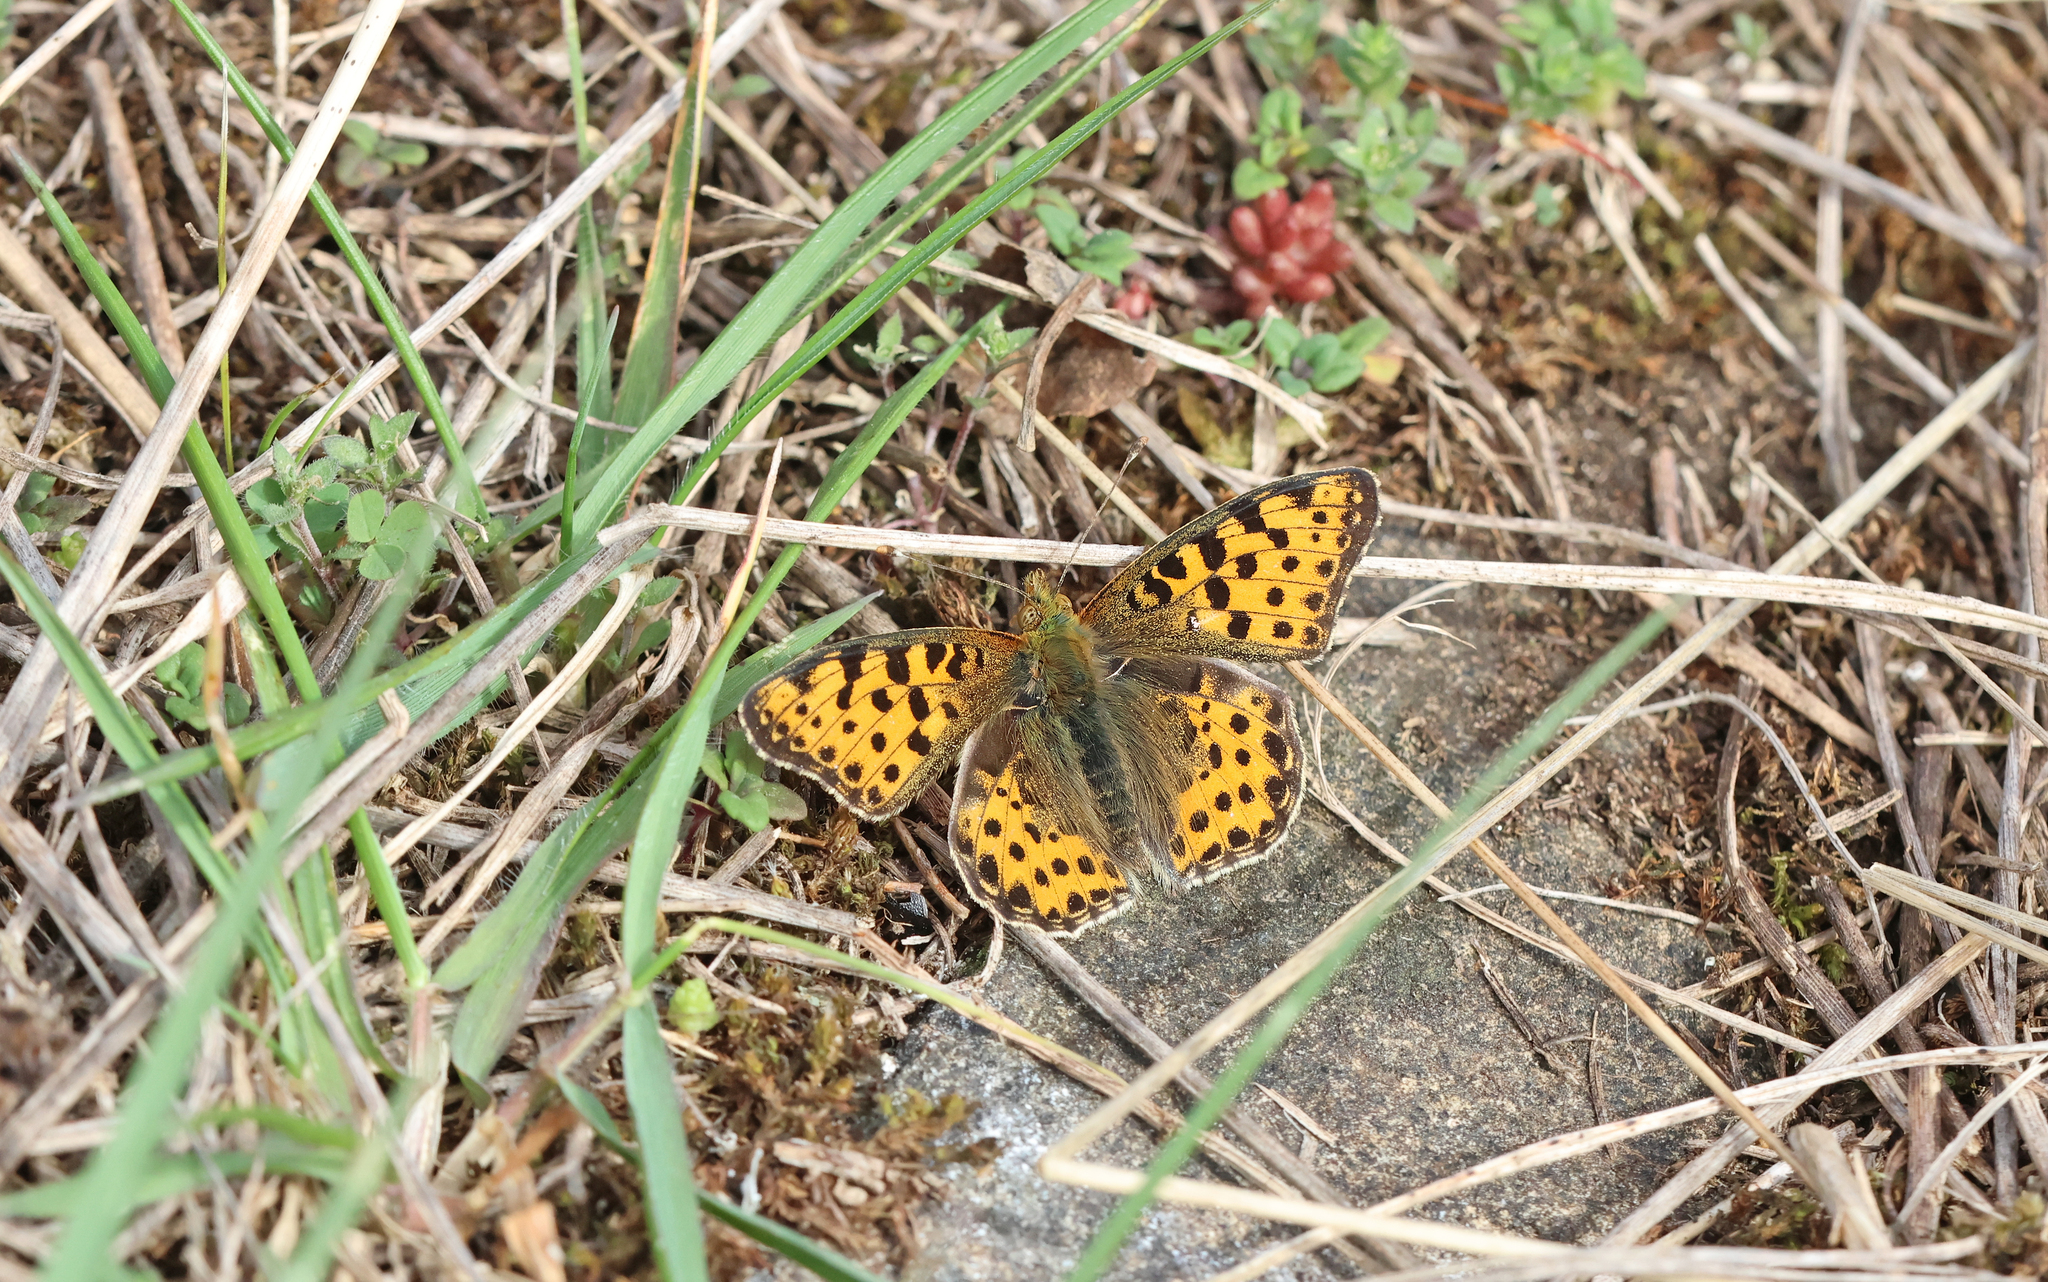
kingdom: Animalia
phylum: Arthropoda
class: Insecta
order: Lepidoptera
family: Nymphalidae
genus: Issoria
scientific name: Issoria lathonia
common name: Queen of spain fritillary
